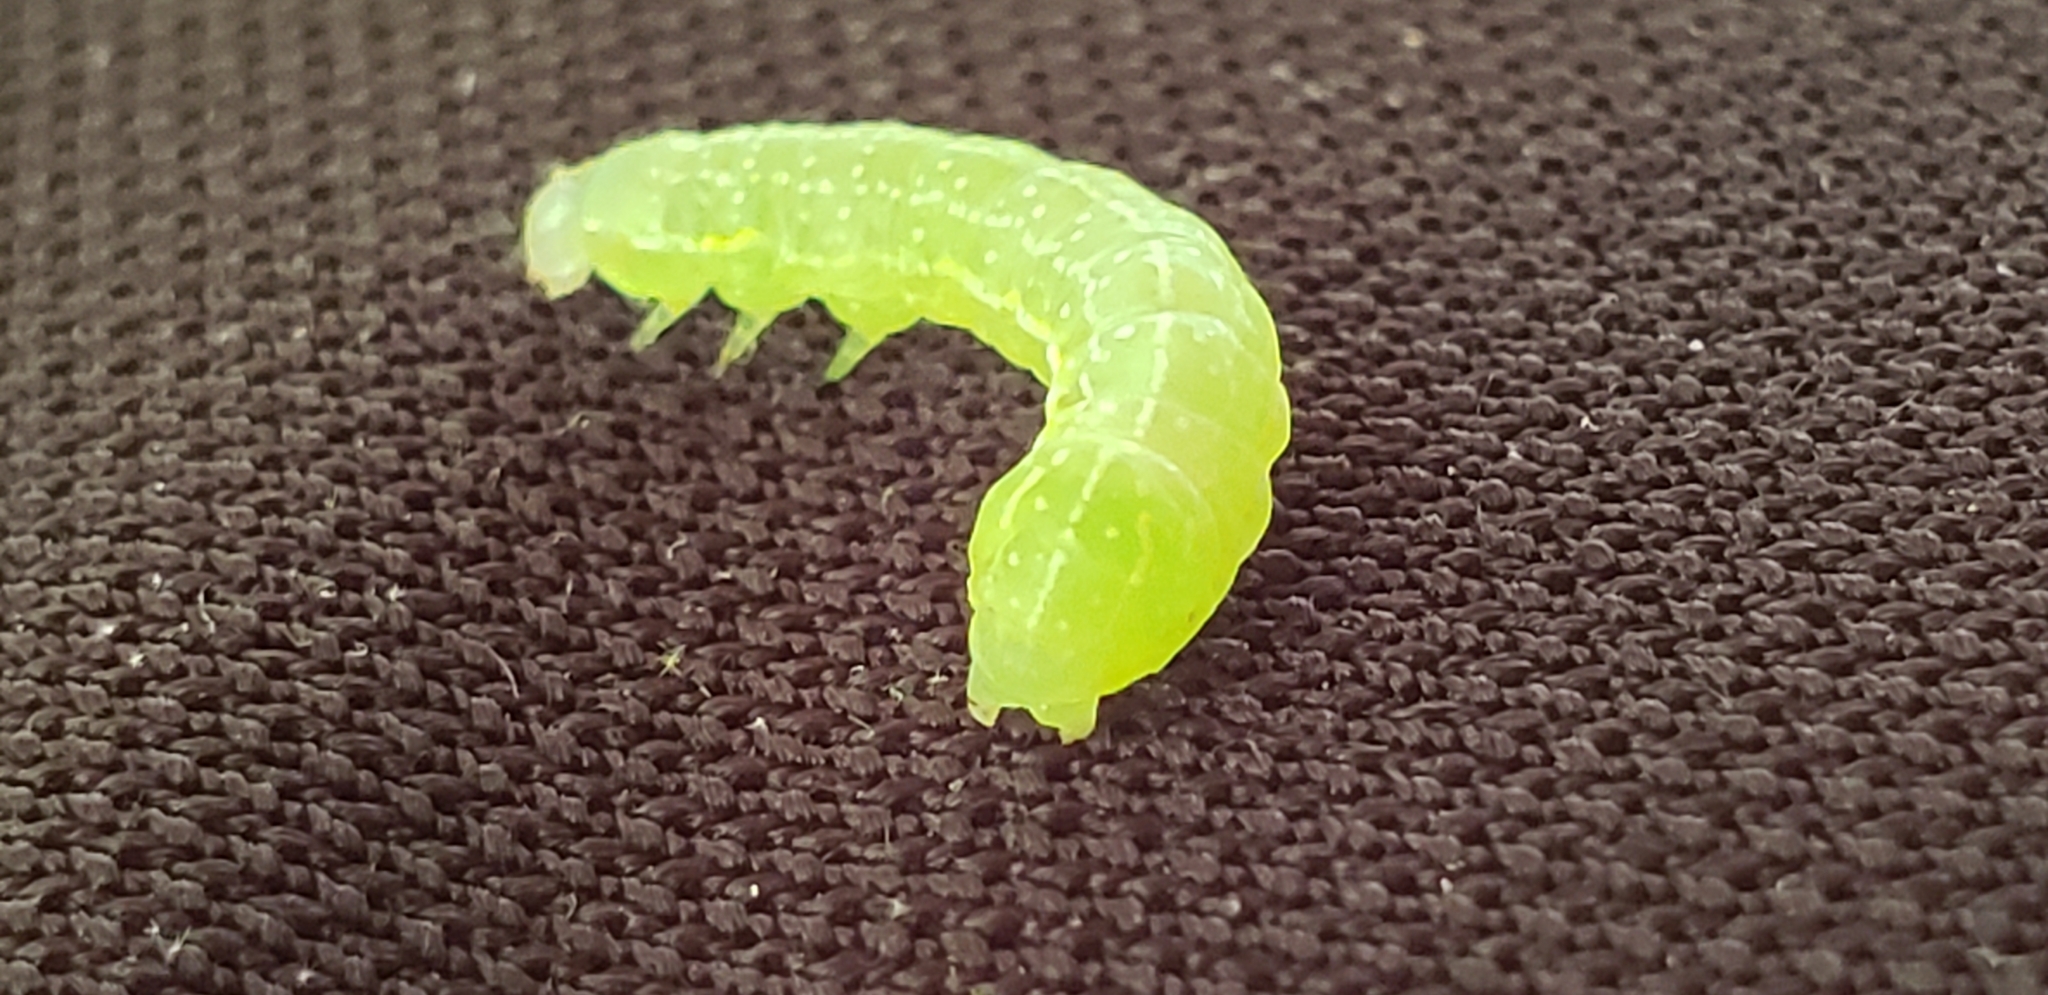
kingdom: Animalia
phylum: Arthropoda
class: Insecta
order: Lepidoptera
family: Noctuidae
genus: Amphipyra
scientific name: Amphipyra pyramidoides
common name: American copper underwing
